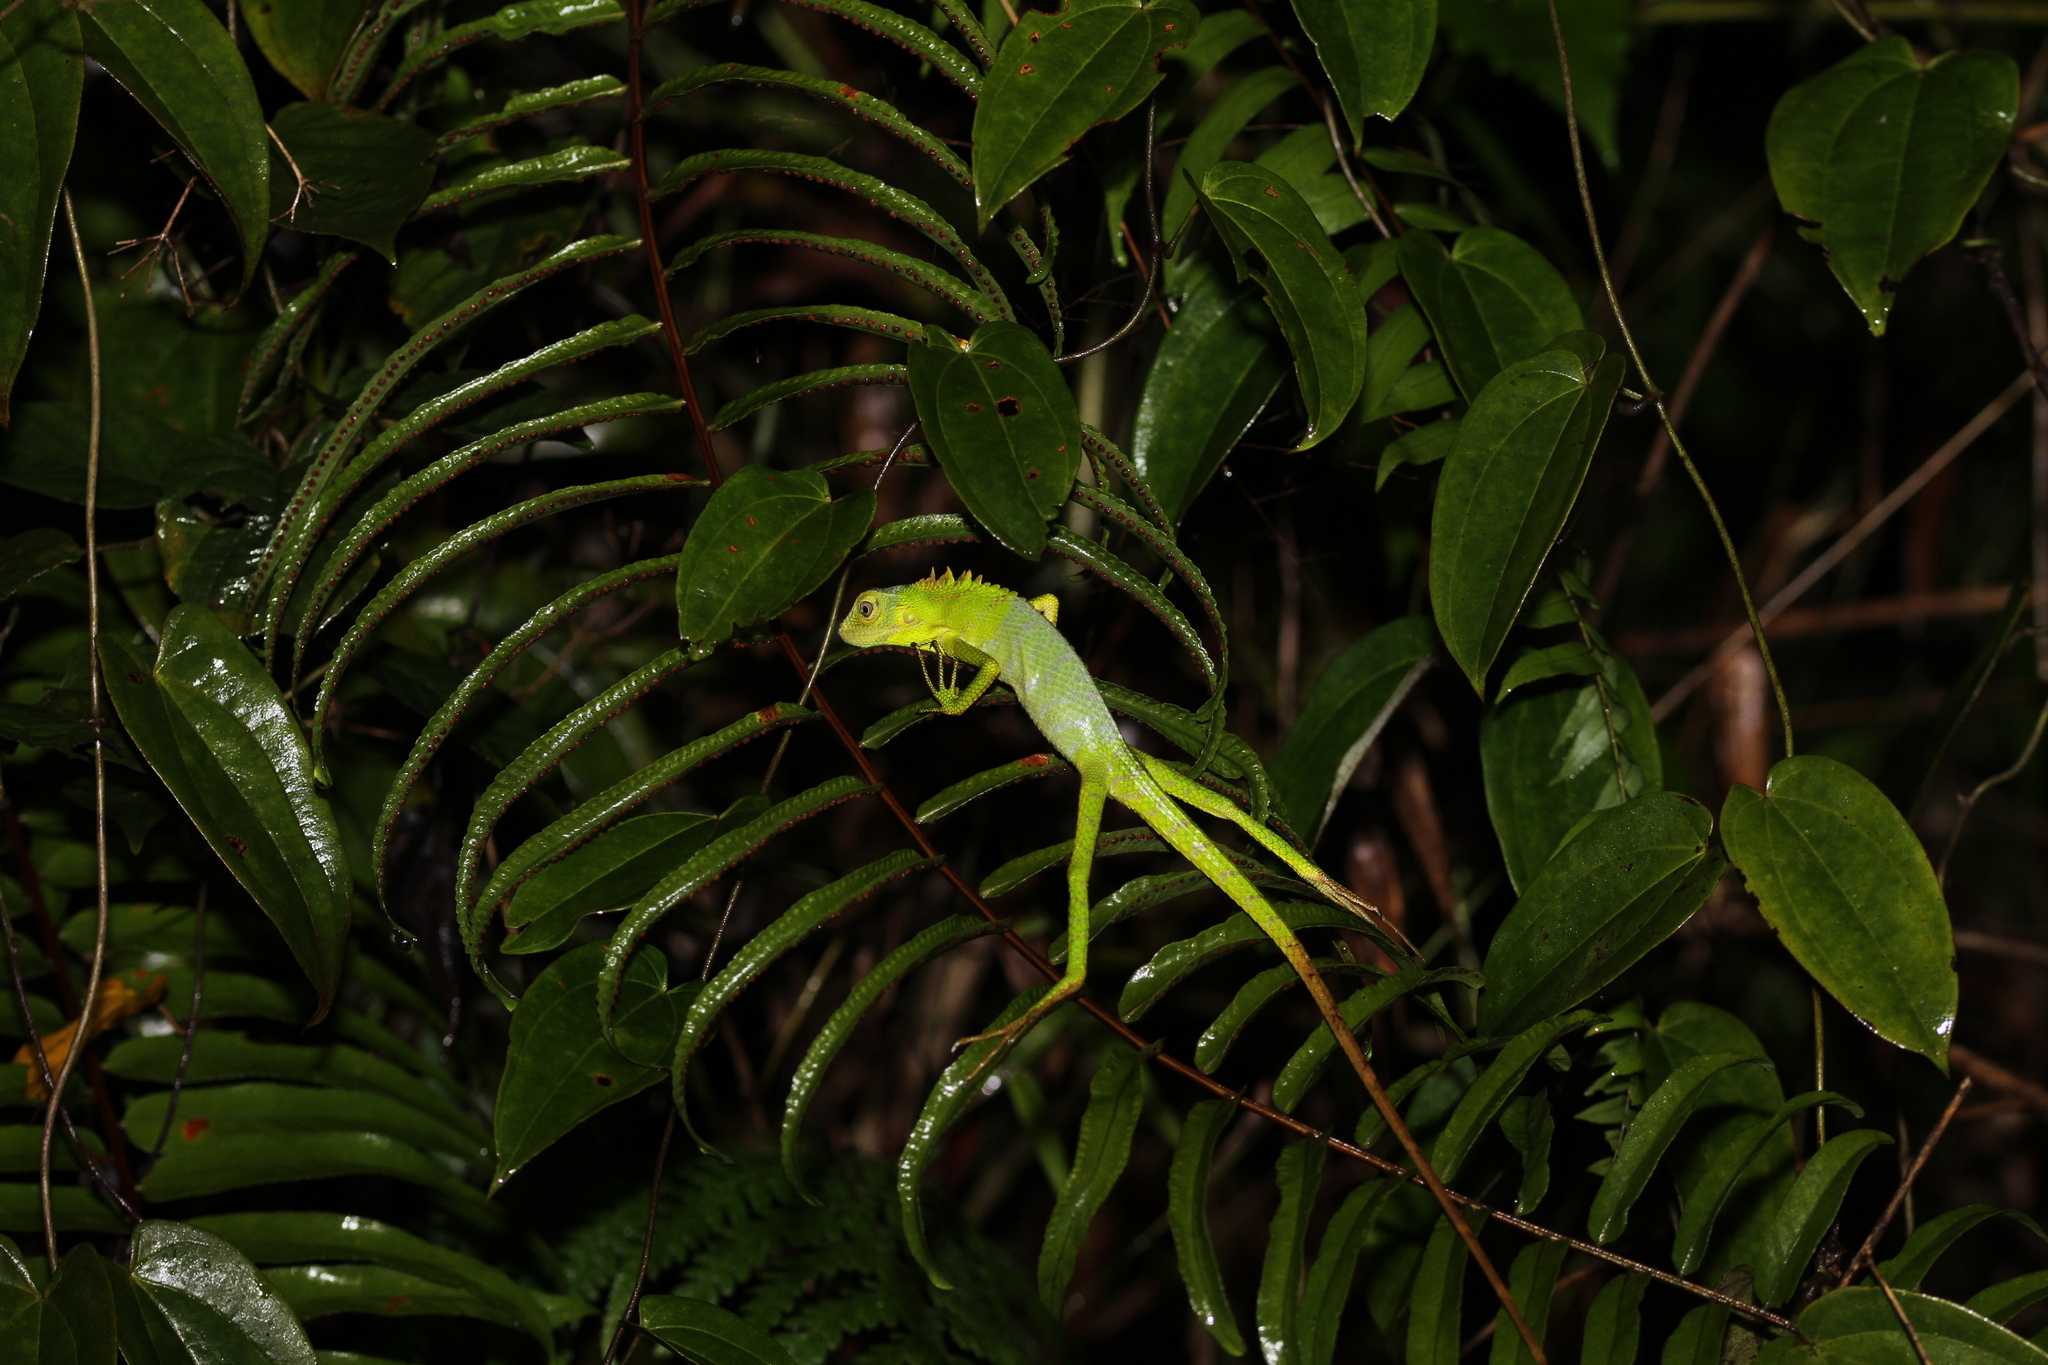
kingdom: Animalia
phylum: Chordata
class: Squamata
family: Agamidae
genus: Bronchocela
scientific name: Bronchocela jubata
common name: Maned forest lizard
